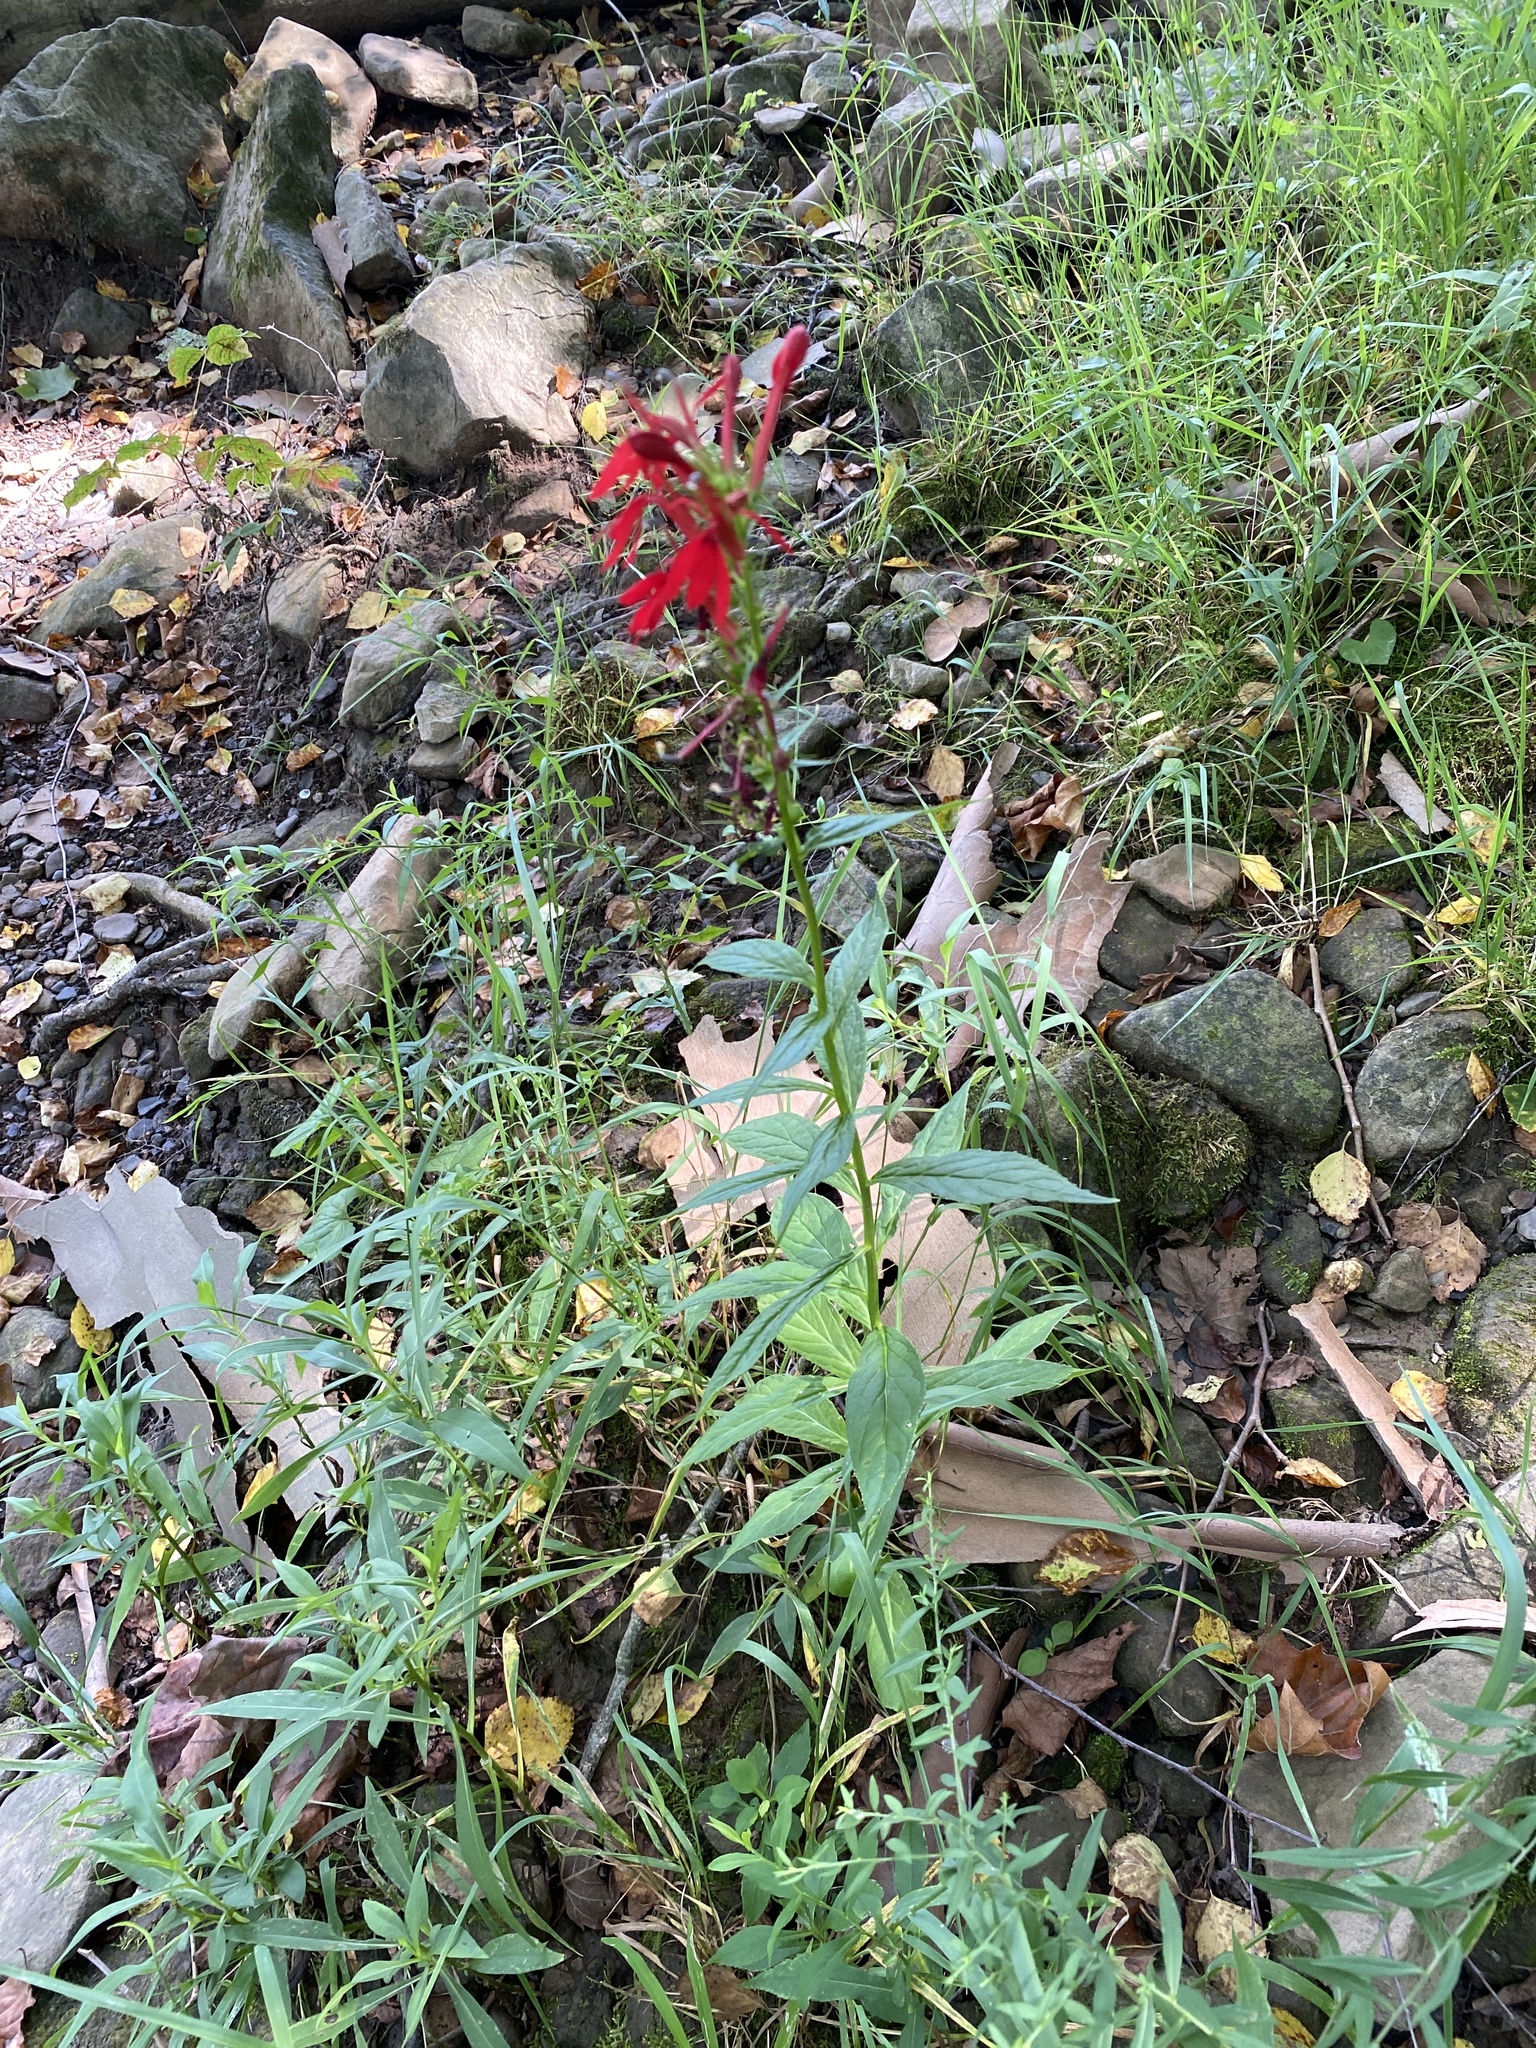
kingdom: Plantae
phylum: Tracheophyta
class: Magnoliopsida
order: Asterales
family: Campanulaceae
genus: Lobelia
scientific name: Lobelia cardinalis
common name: Cardinal flower
